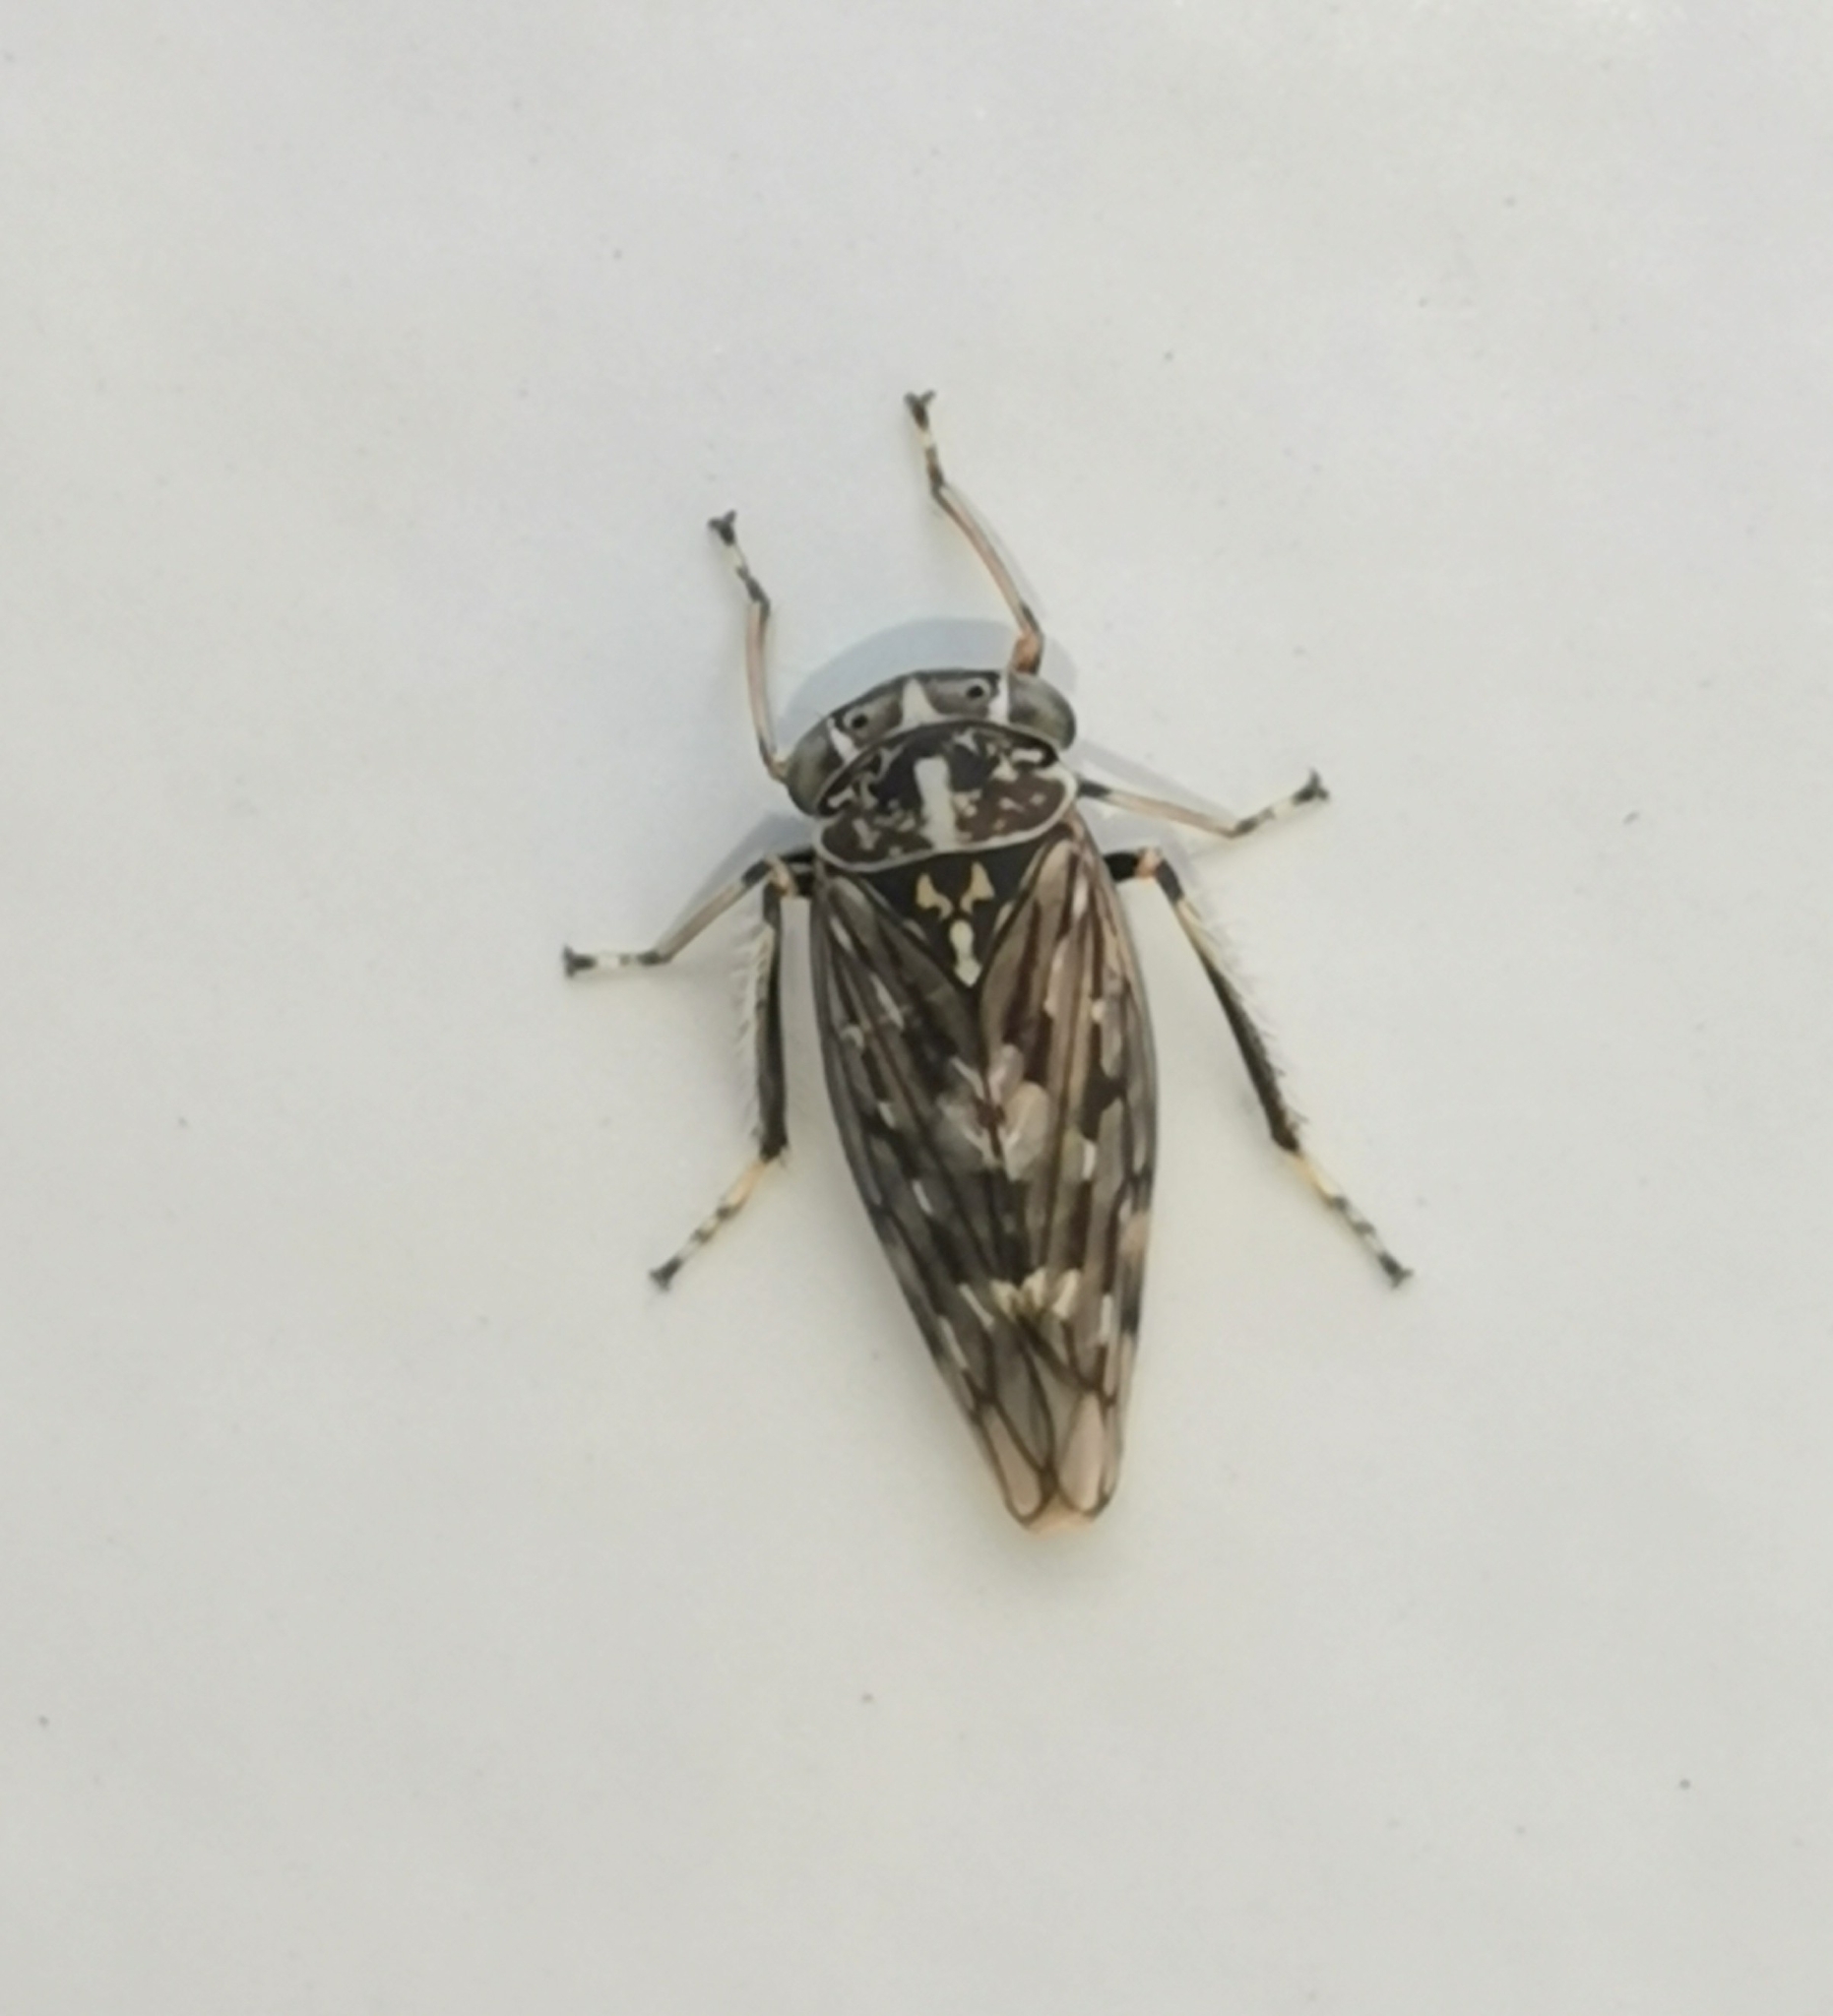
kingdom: Animalia
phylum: Arthropoda
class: Insecta
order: Hemiptera
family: Cicadellidae
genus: Metidiocerus
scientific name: Metidiocerus poecilus
